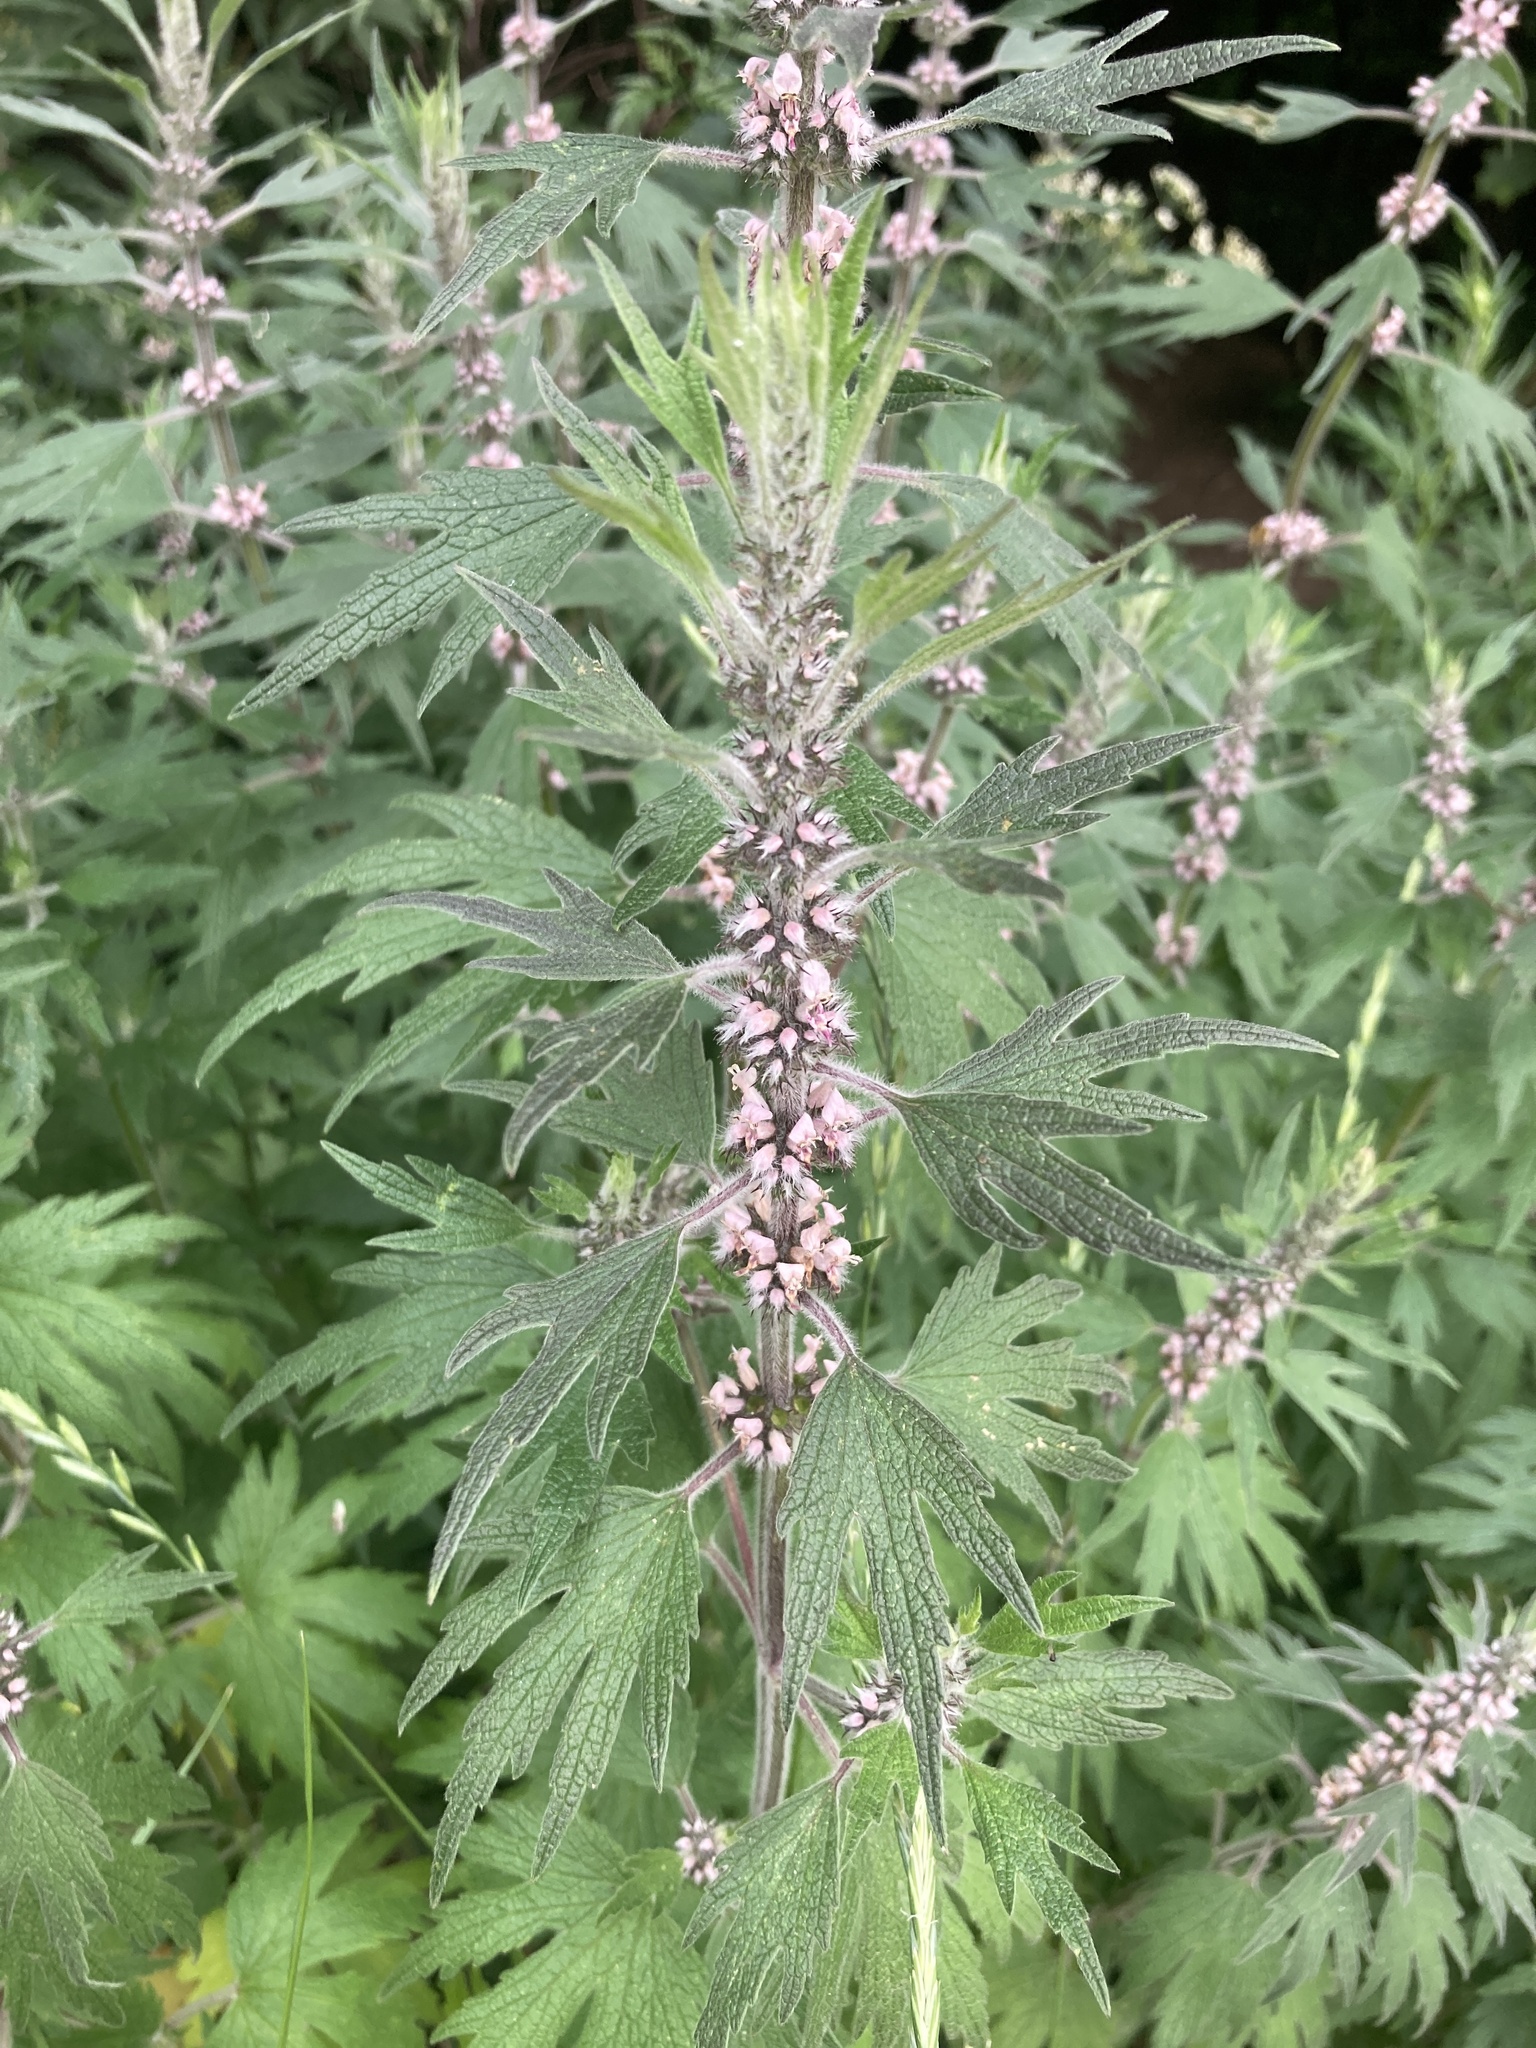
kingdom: Plantae
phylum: Tracheophyta
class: Magnoliopsida
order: Lamiales
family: Lamiaceae
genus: Leonurus
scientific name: Leonurus quinquelobatus
